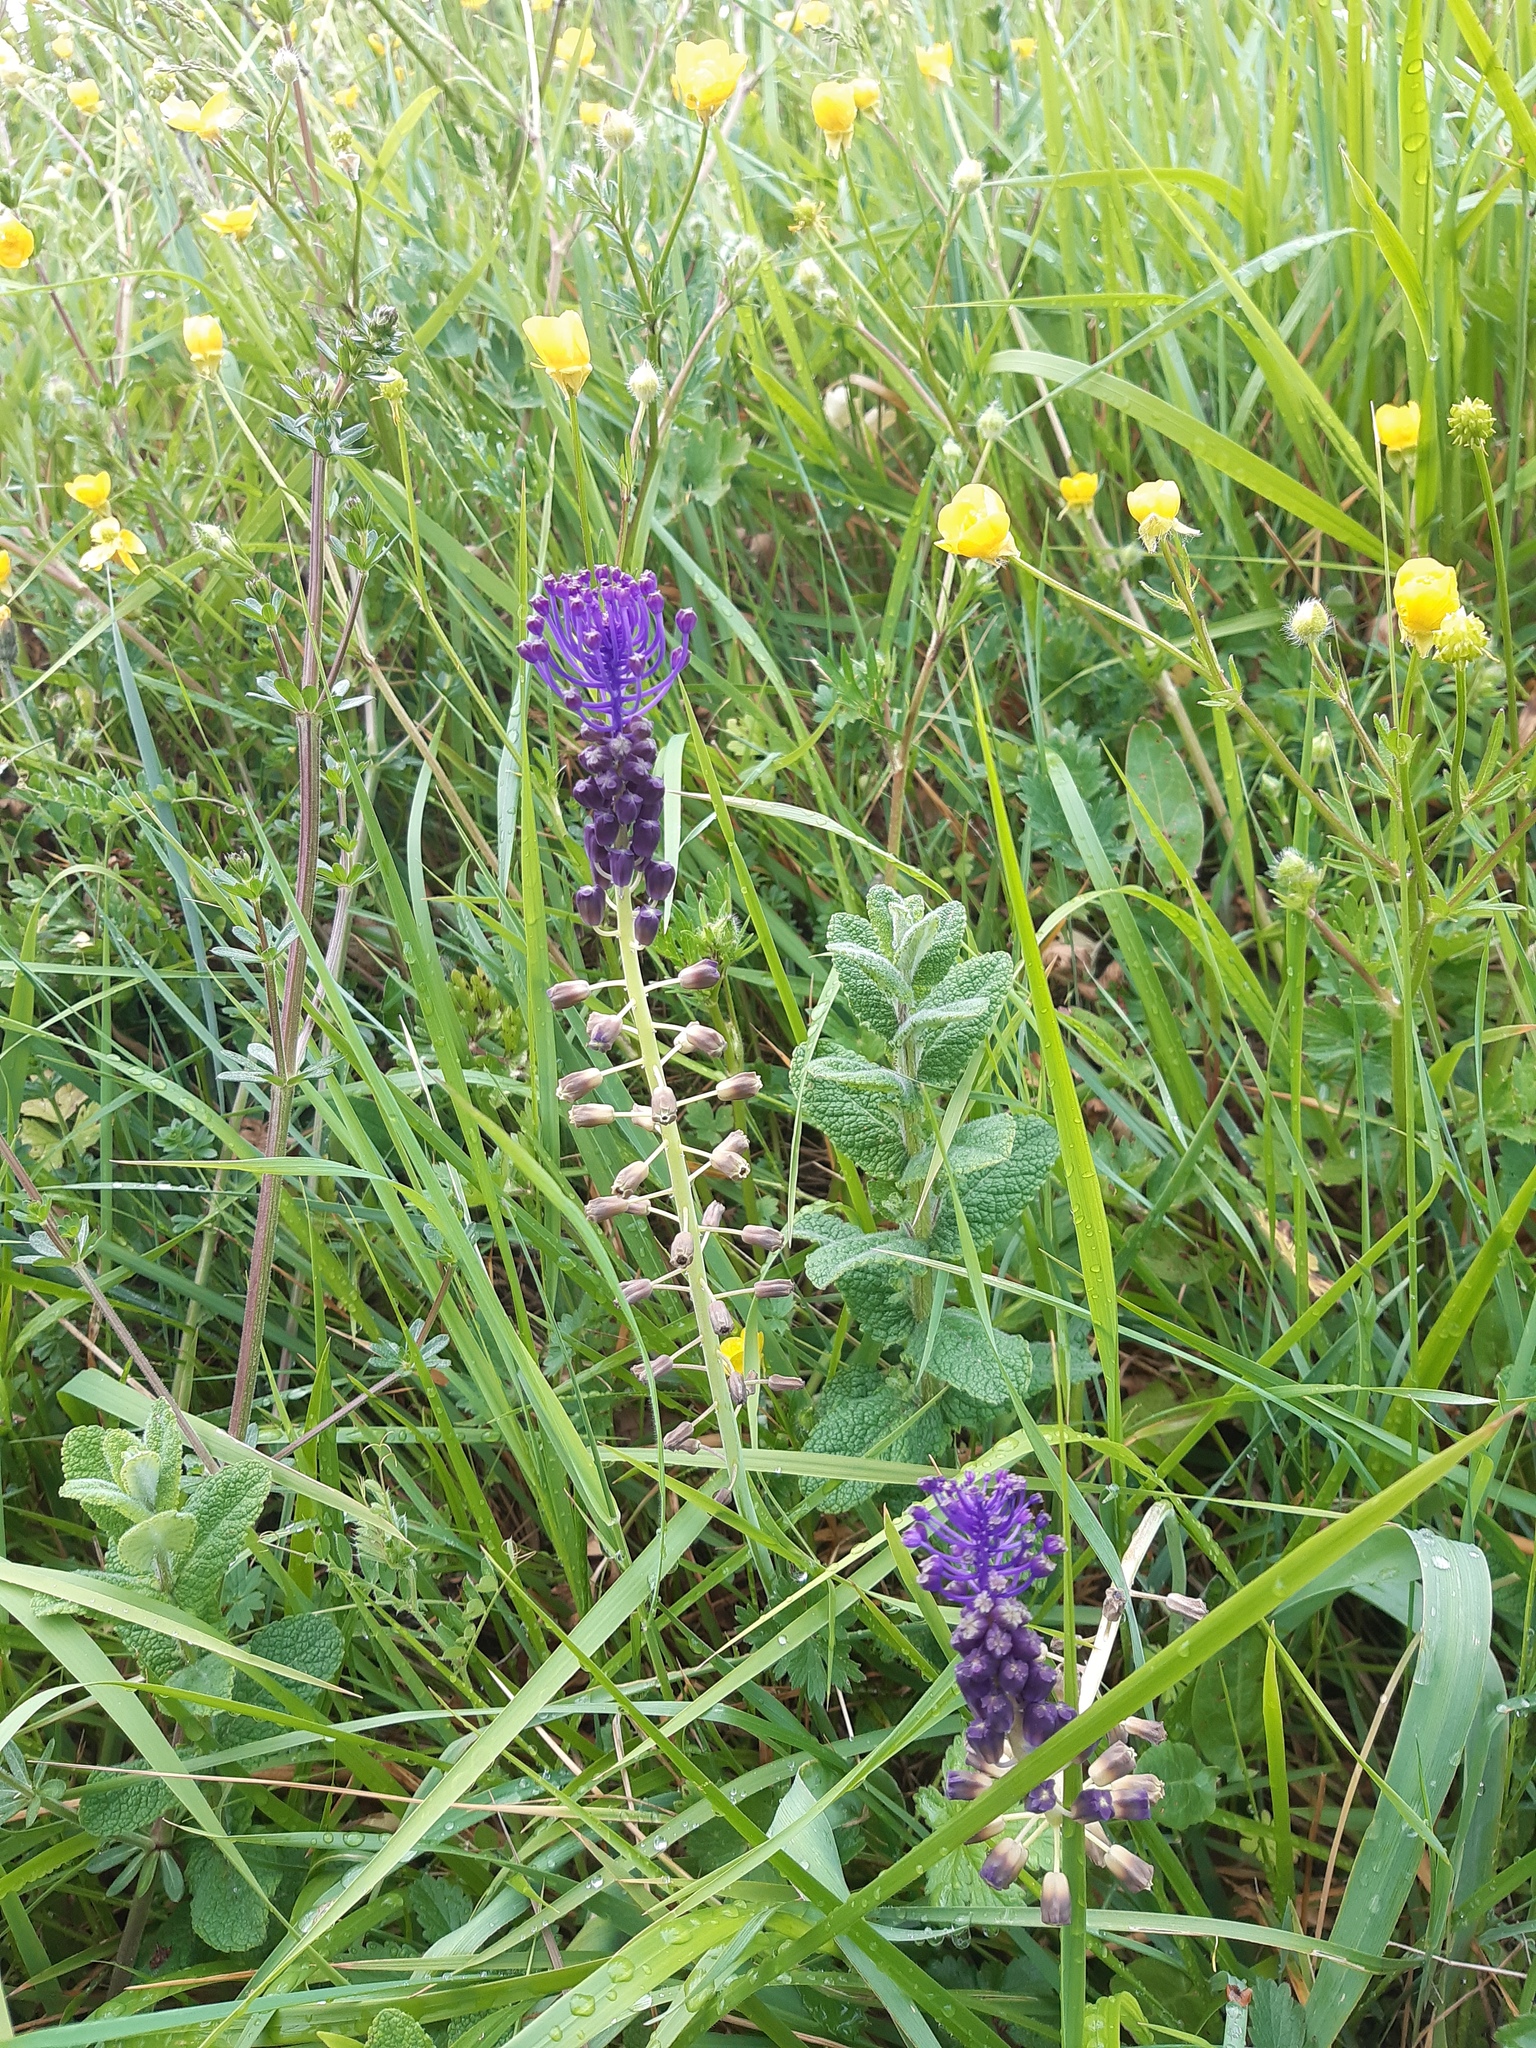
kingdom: Plantae
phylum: Tracheophyta
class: Liliopsida
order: Asparagales
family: Asparagaceae
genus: Muscari
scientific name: Muscari comosum
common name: Tassel hyacinth
